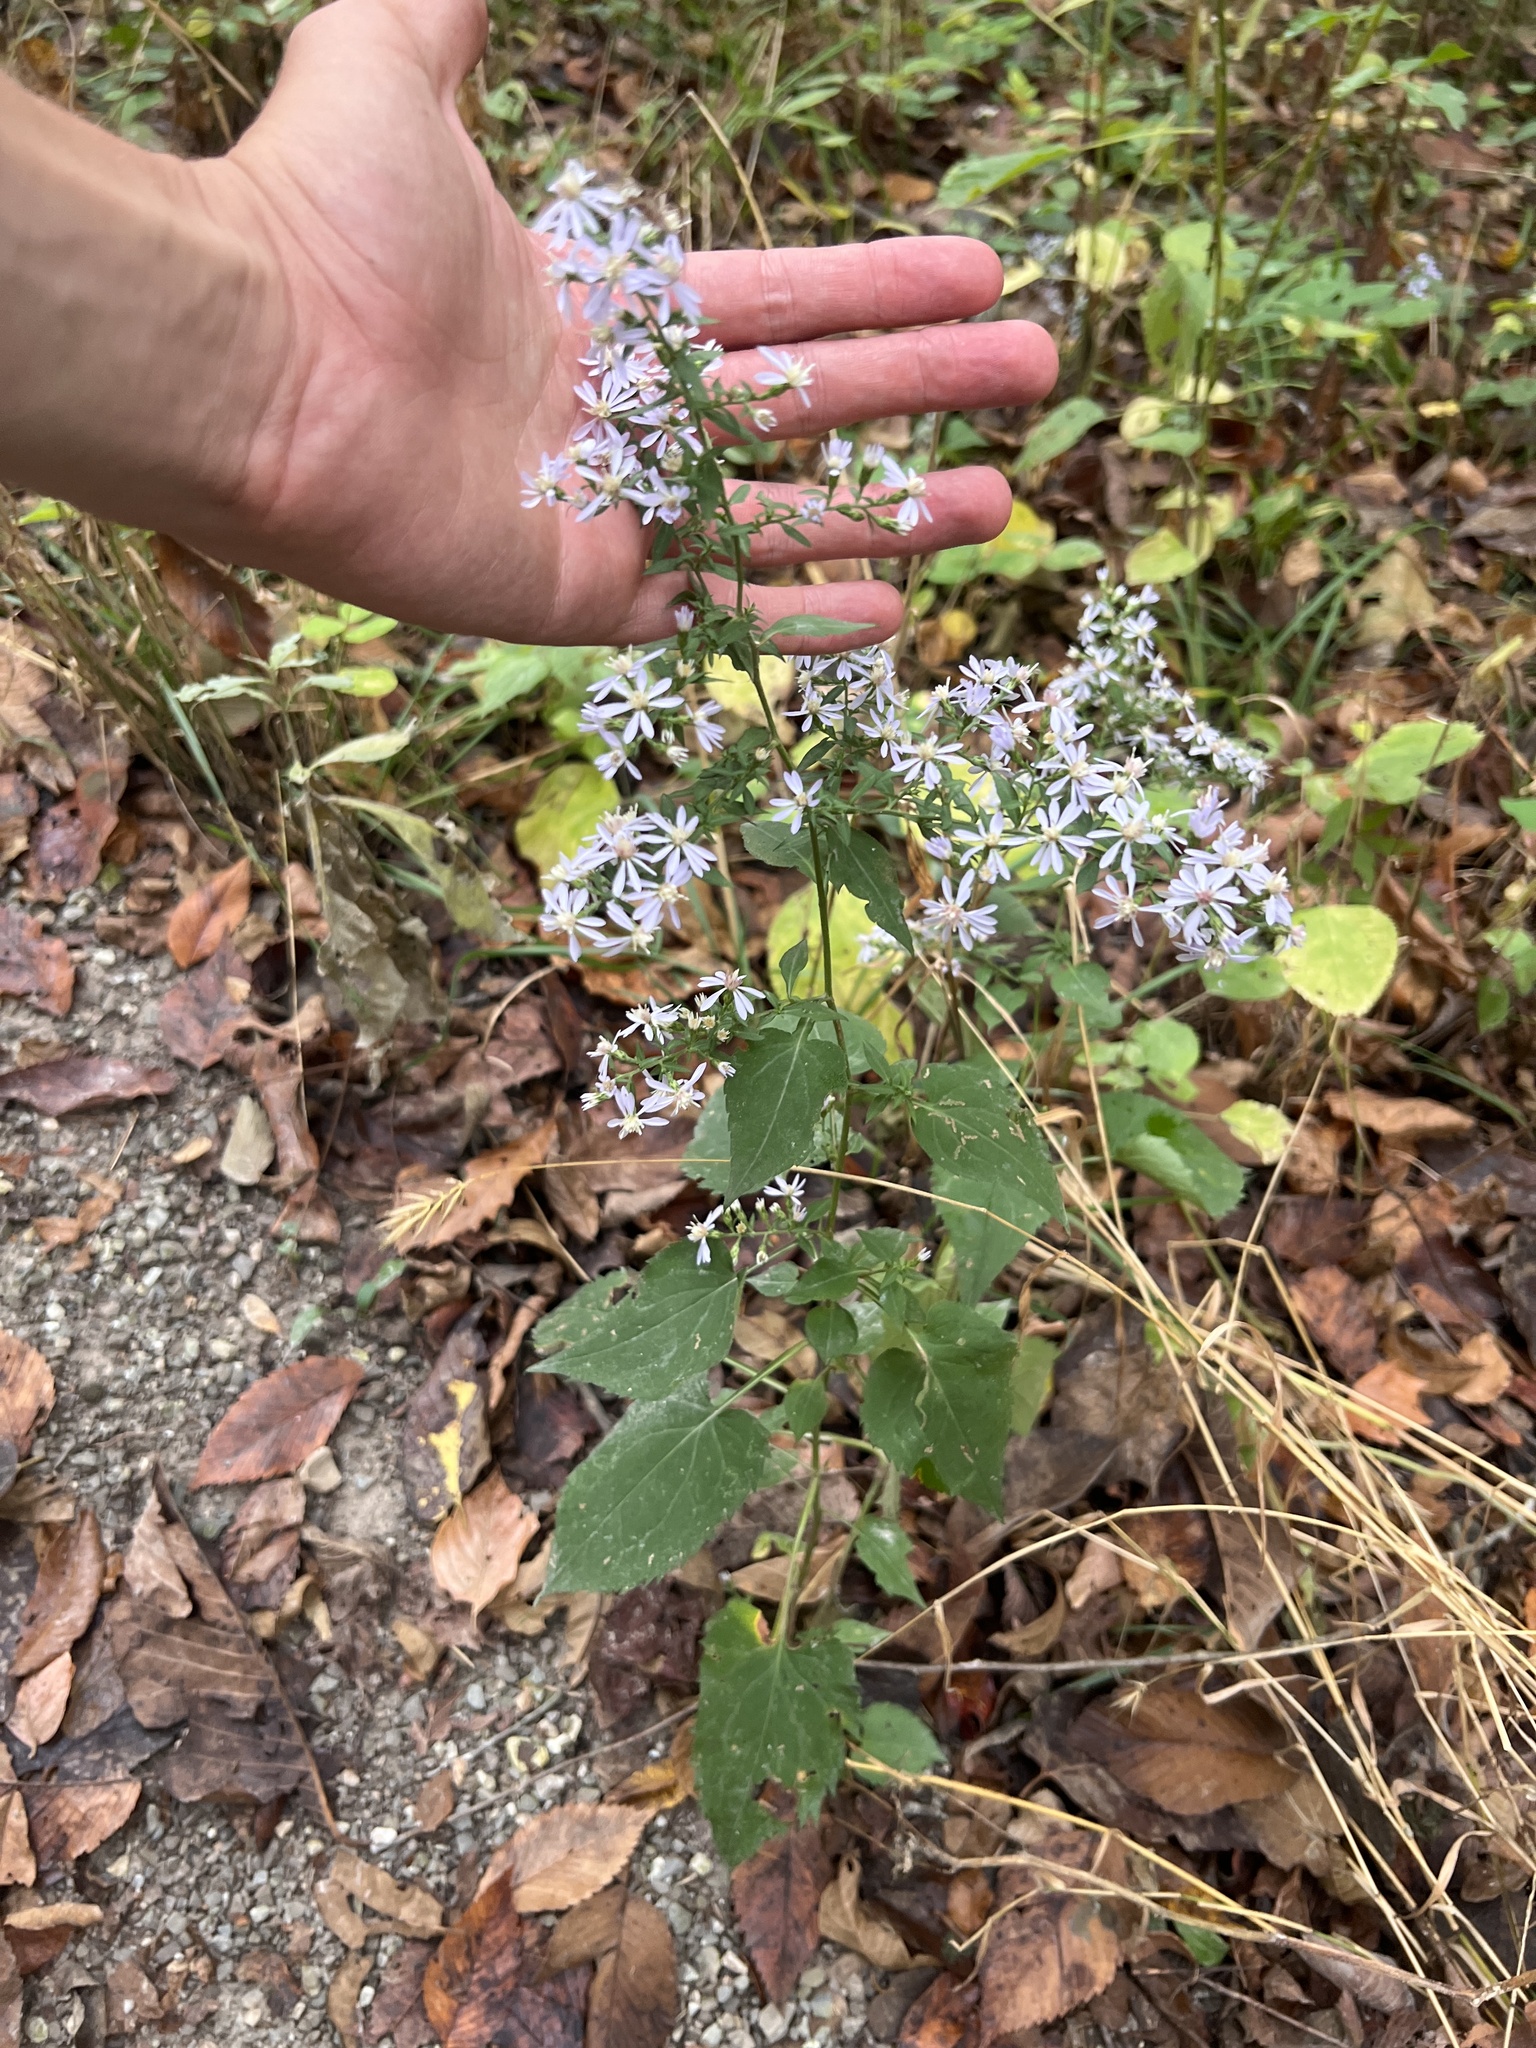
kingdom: Plantae
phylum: Tracheophyta
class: Magnoliopsida
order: Asterales
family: Asteraceae
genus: Symphyotrichum
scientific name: Symphyotrichum drummondii
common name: Drummond's aster
